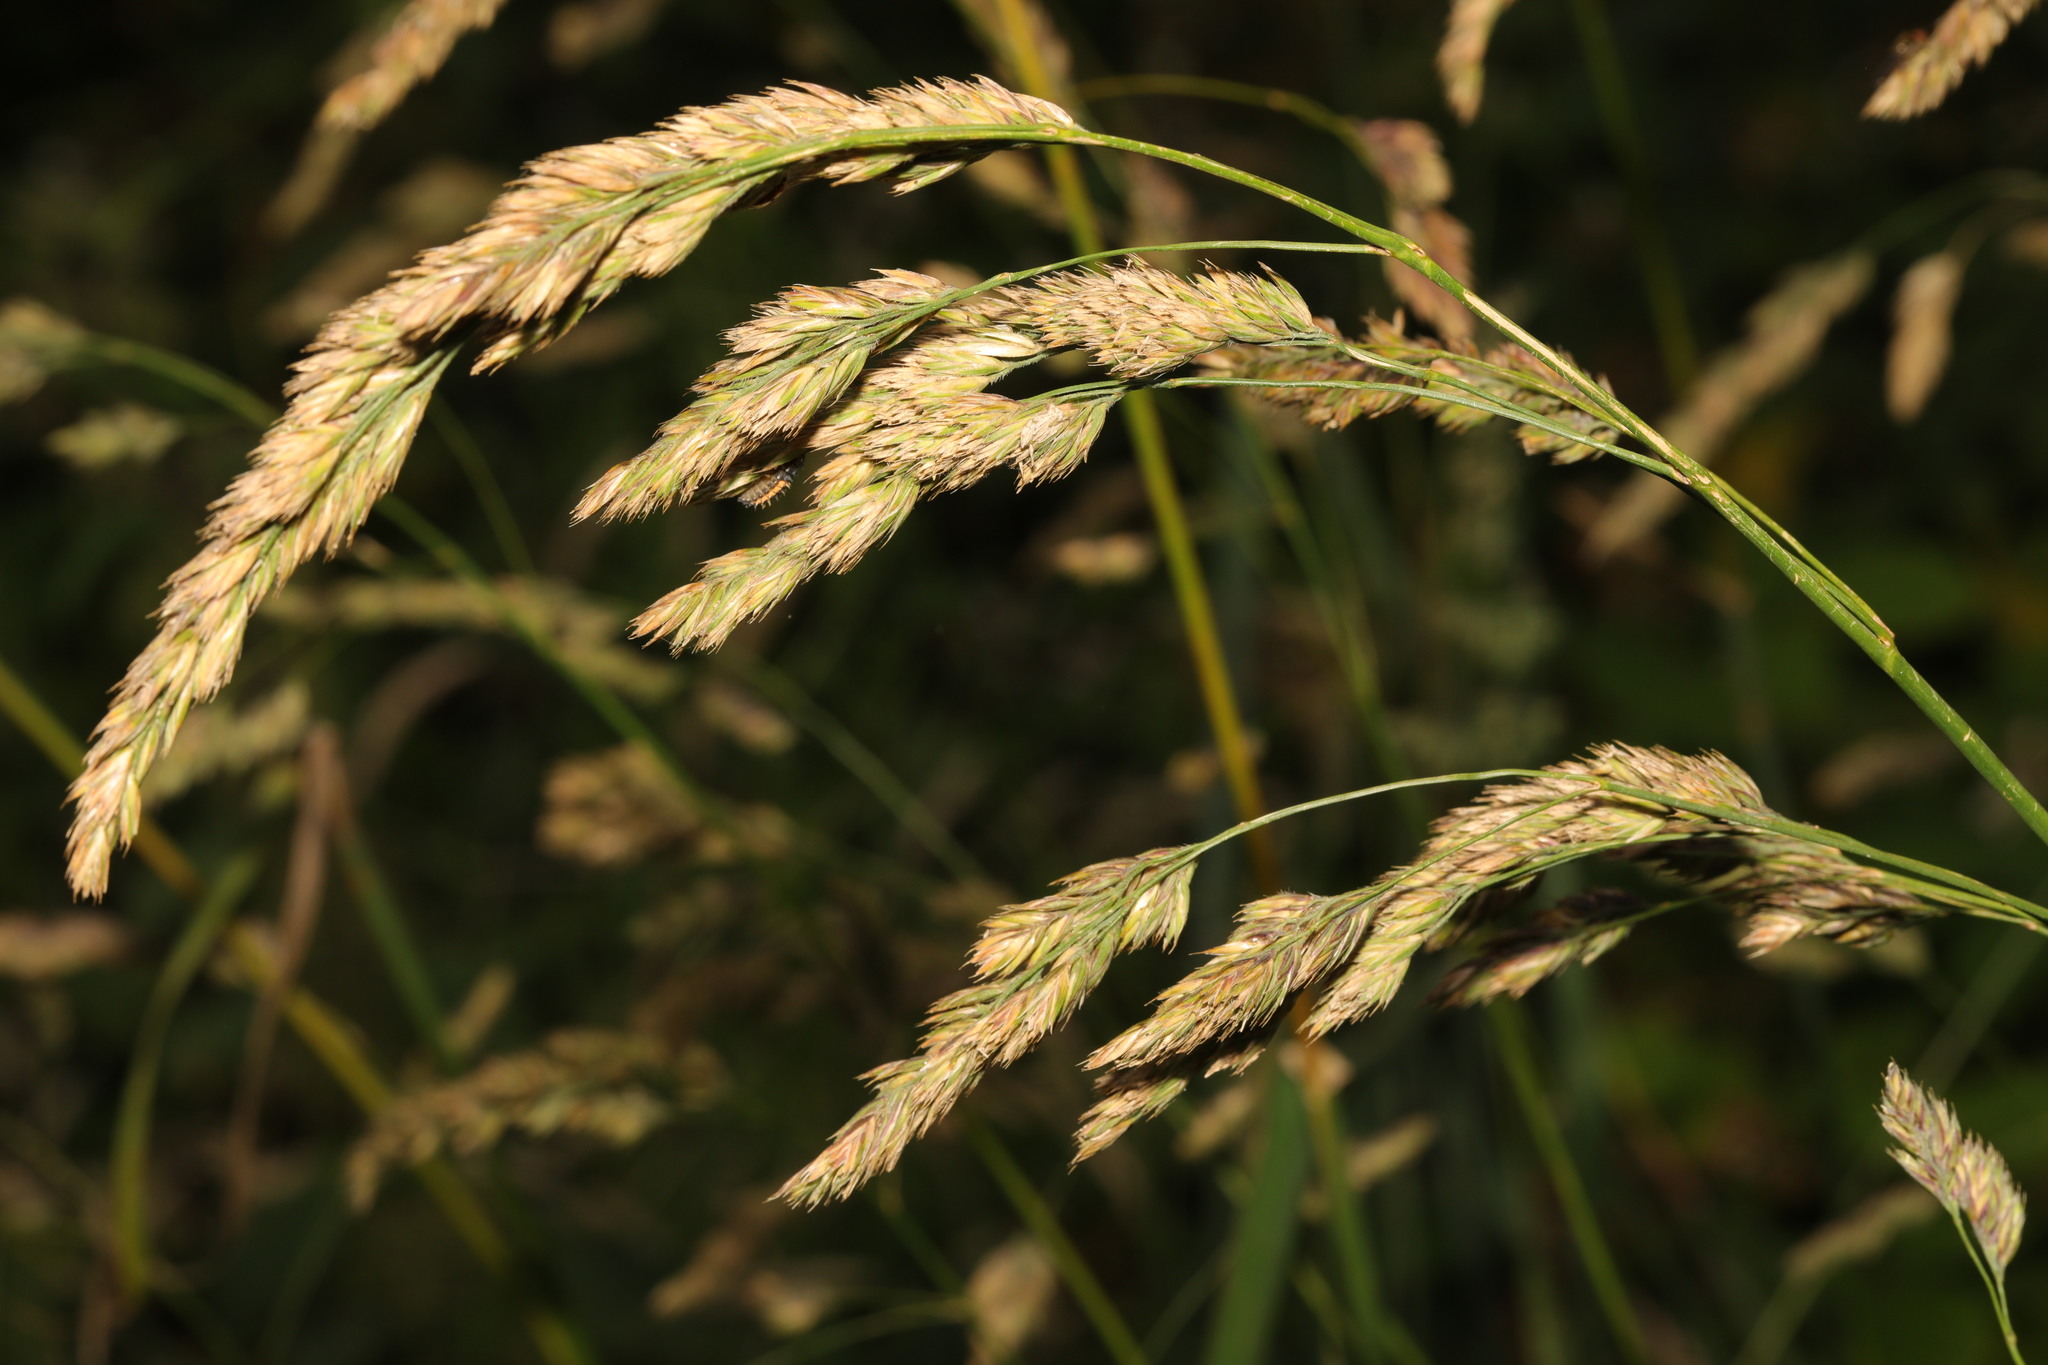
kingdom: Plantae
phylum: Tracheophyta
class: Liliopsida
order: Poales
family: Poaceae
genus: Dactylis
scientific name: Dactylis glomerata
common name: Orchardgrass
